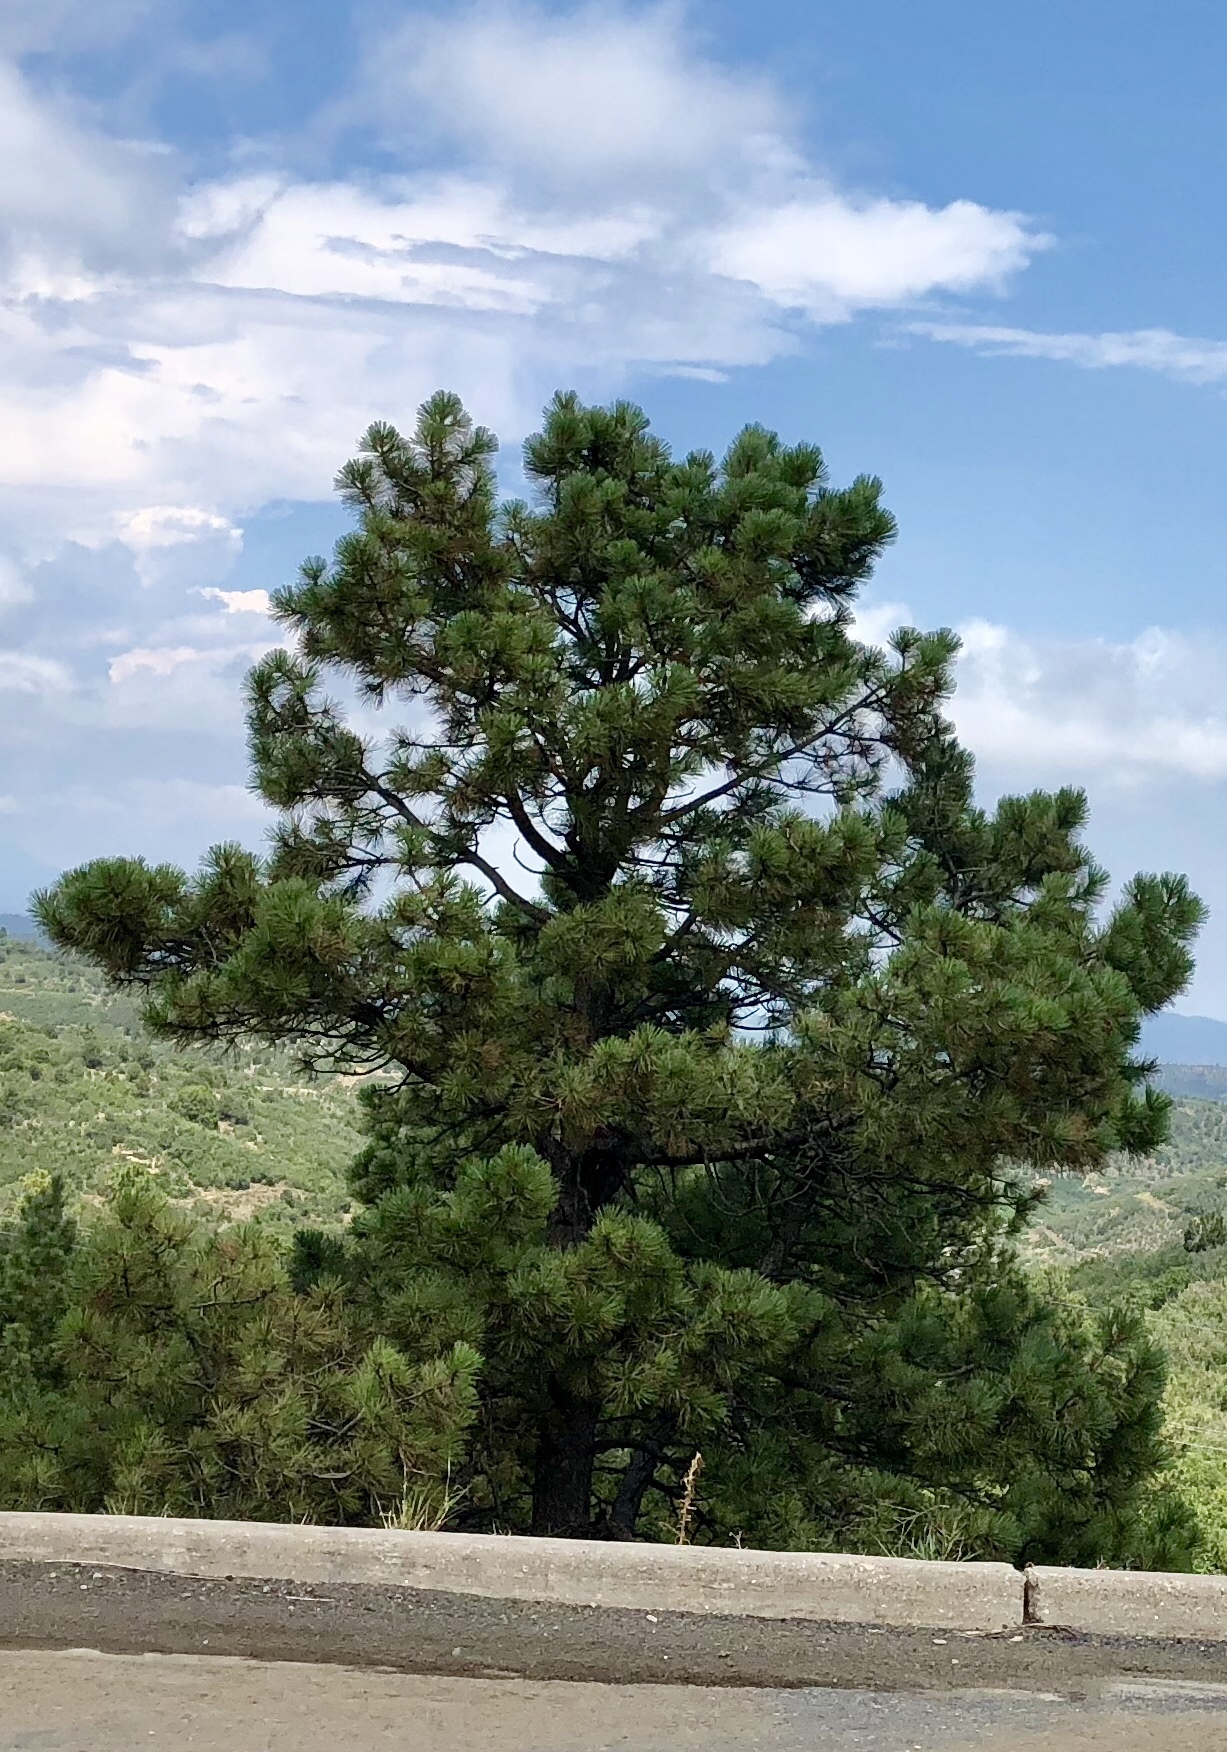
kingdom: Plantae
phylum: Tracheophyta
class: Pinopsida
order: Pinales
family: Pinaceae
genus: Pinus
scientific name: Pinus ponderosa
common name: Western yellow-pine
